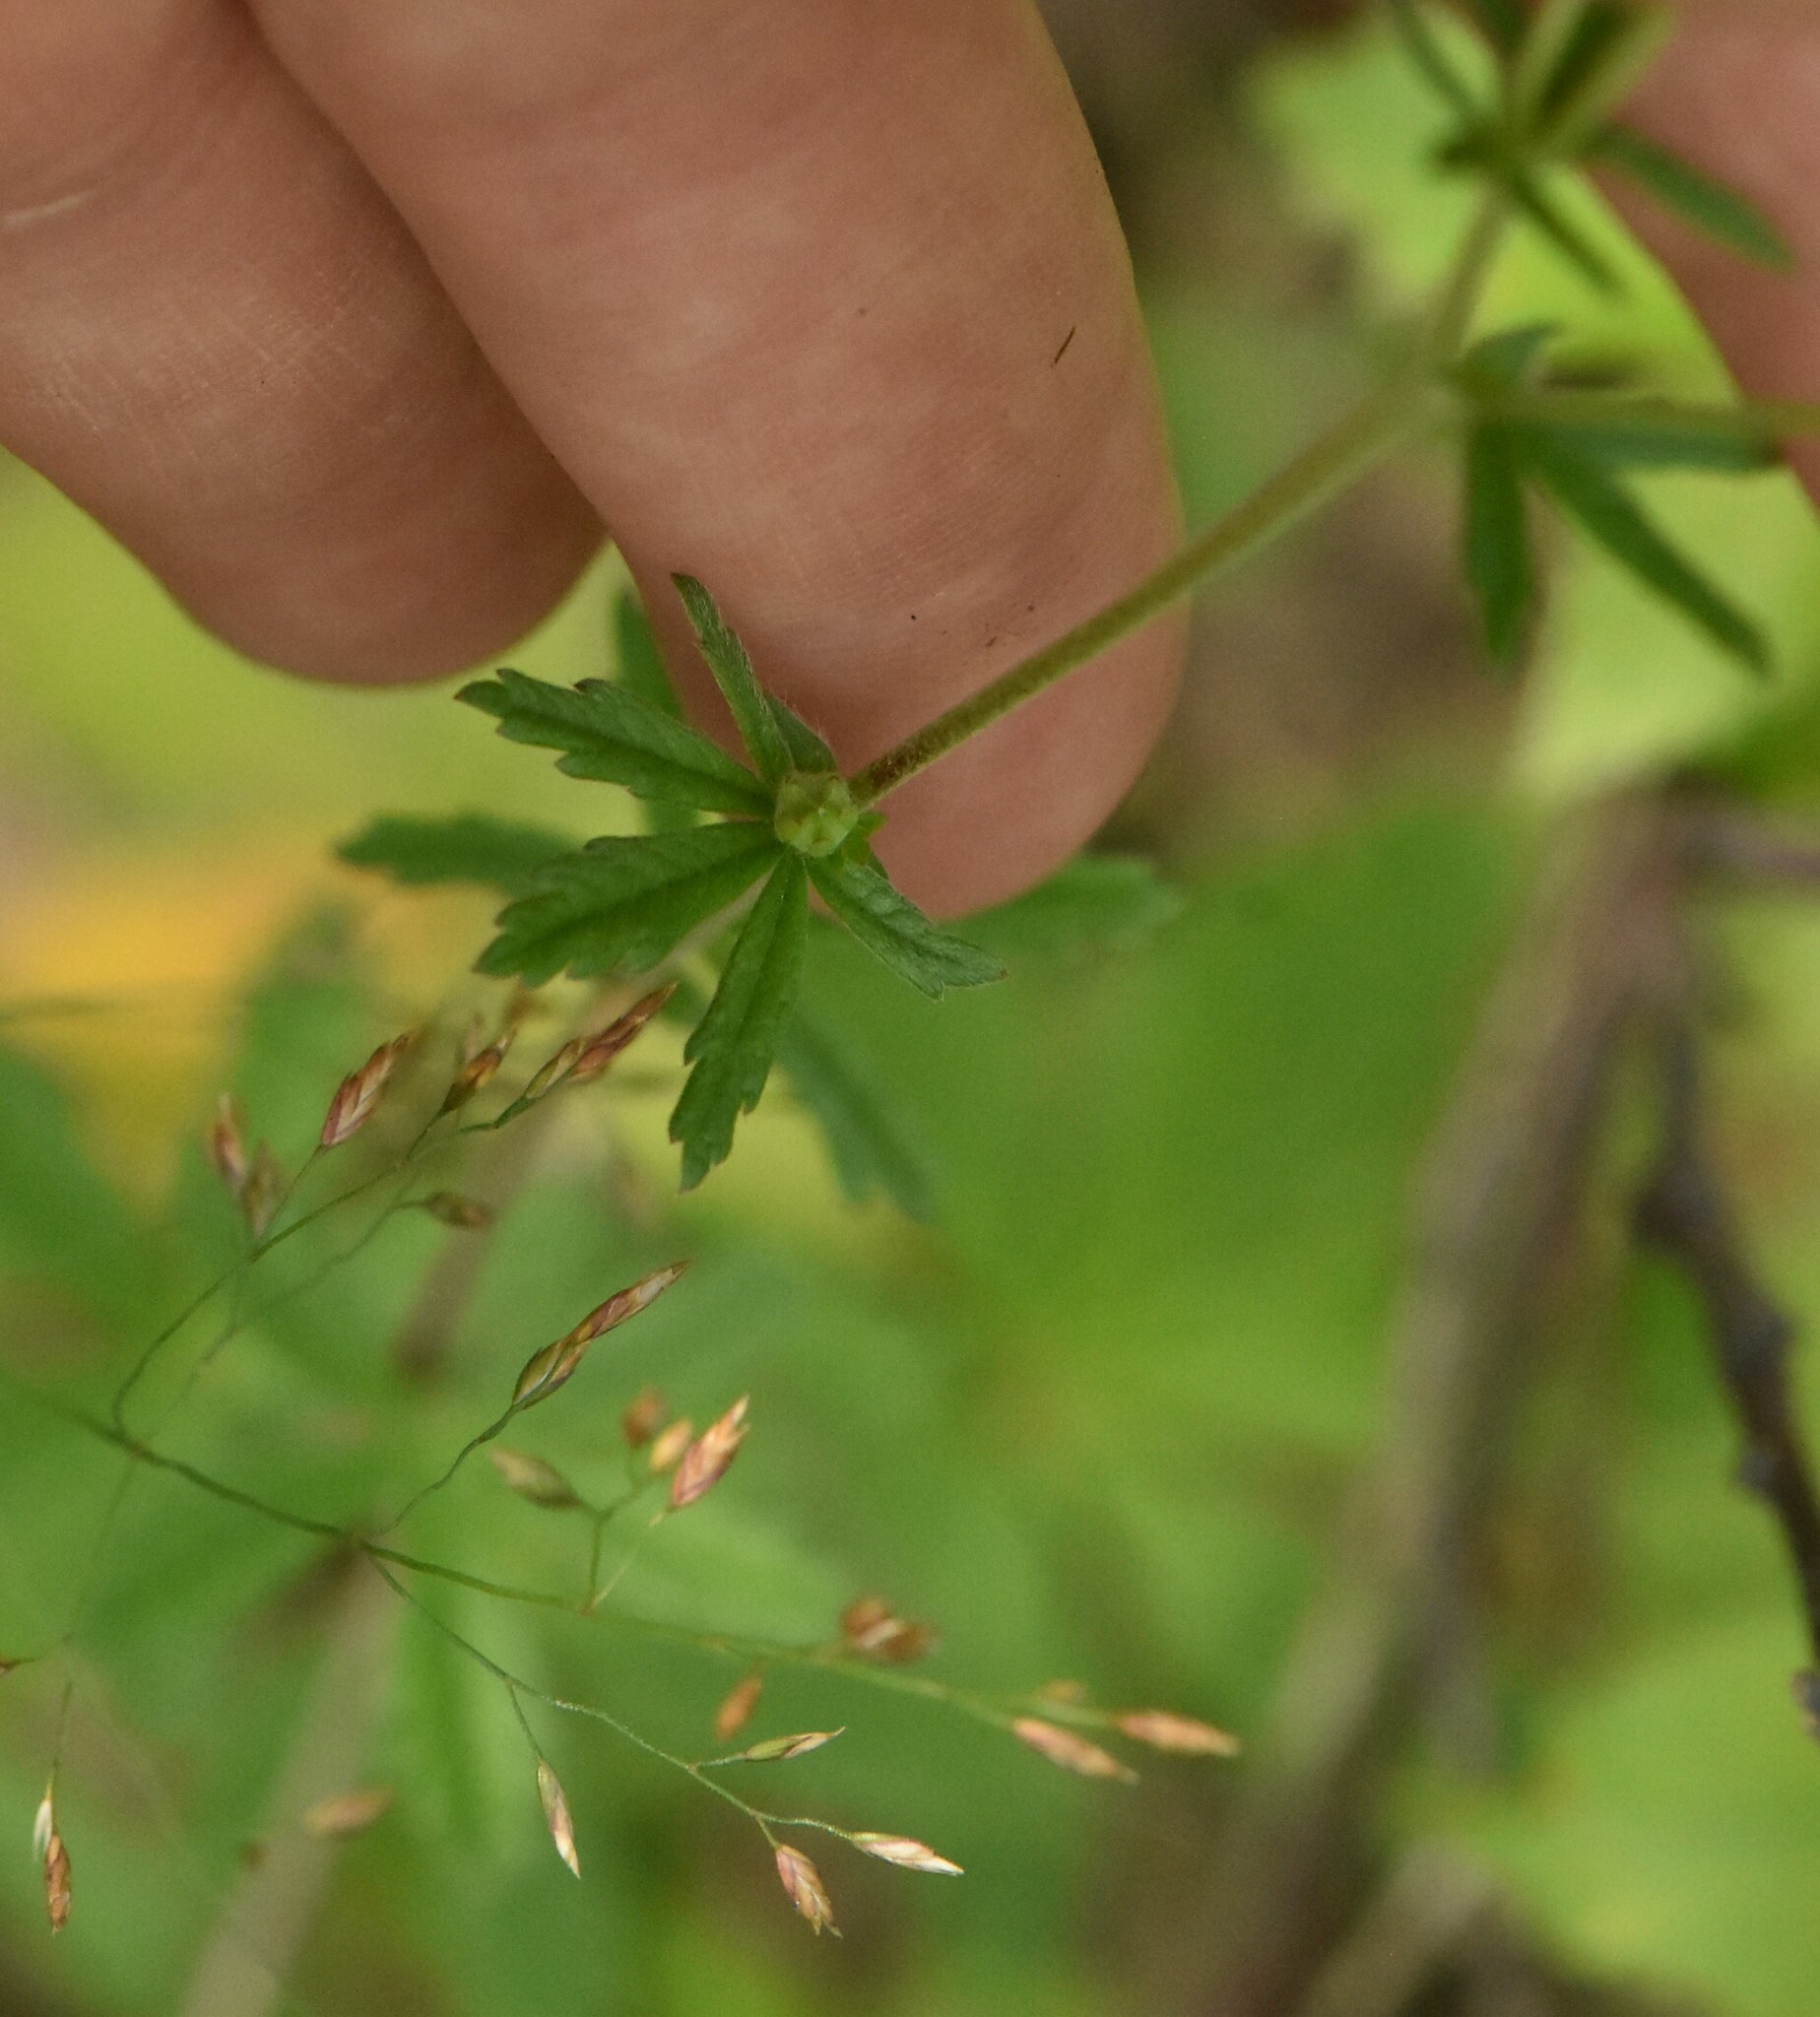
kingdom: Plantae
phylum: Tracheophyta
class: Magnoliopsida
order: Rosales
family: Rosaceae
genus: Potentilla
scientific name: Potentilla argentea
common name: Hoary cinquefoil
